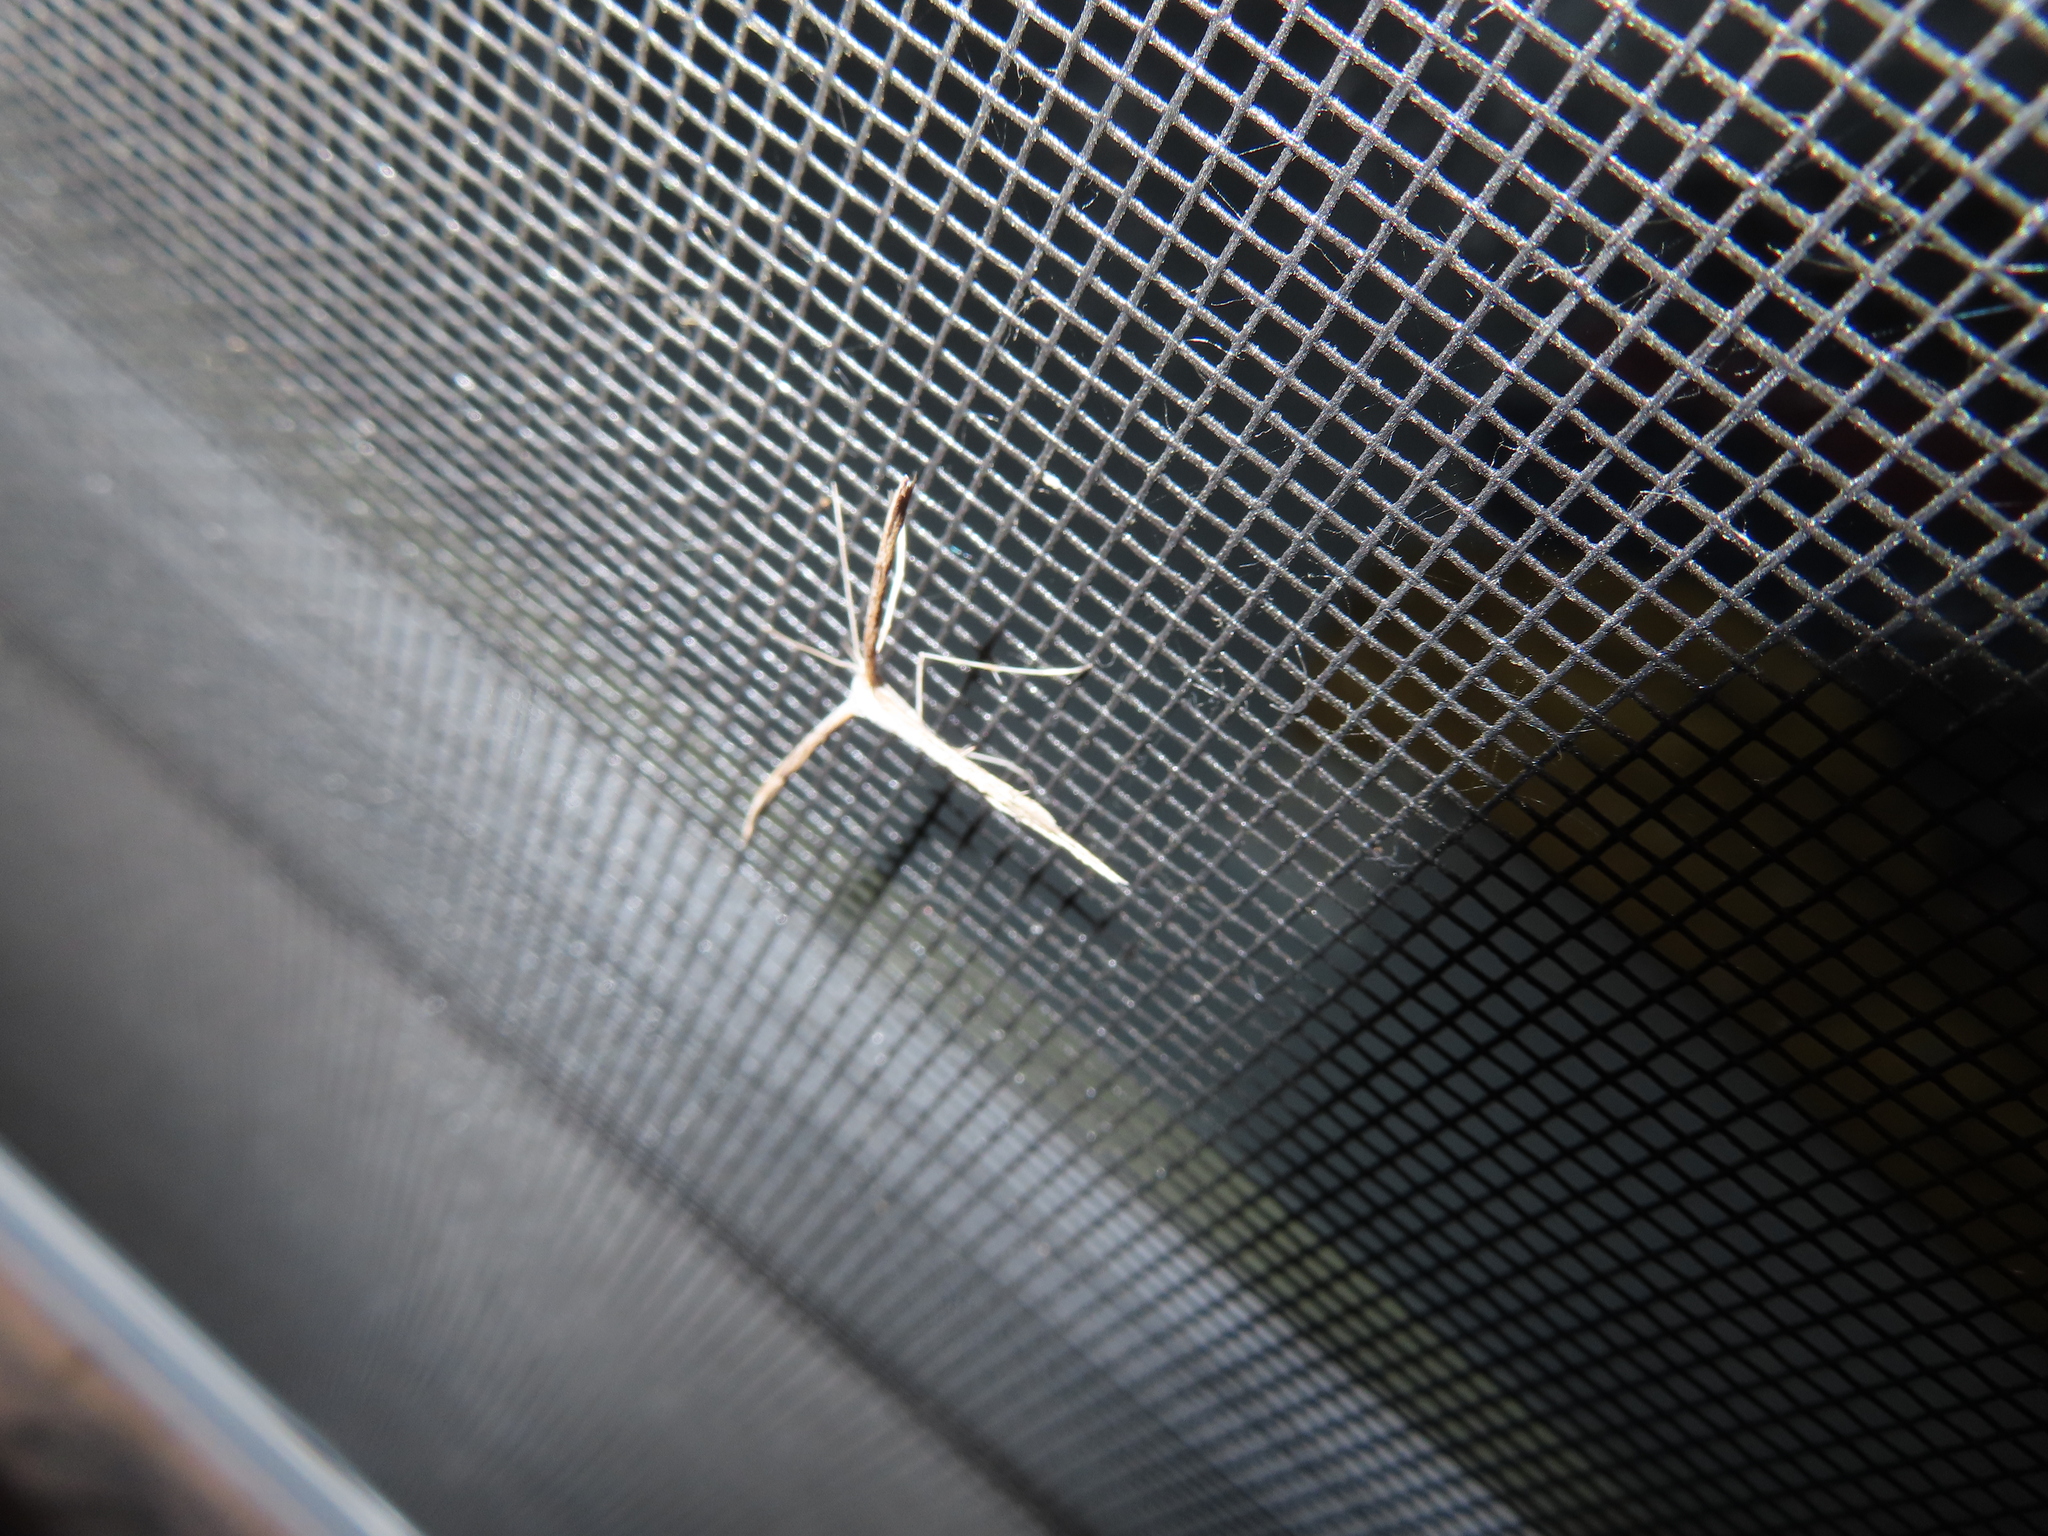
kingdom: Animalia
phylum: Arthropoda
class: Insecta
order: Lepidoptera
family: Pterophoridae
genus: Emmelina
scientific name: Emmelina monodactyla
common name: Common plume
